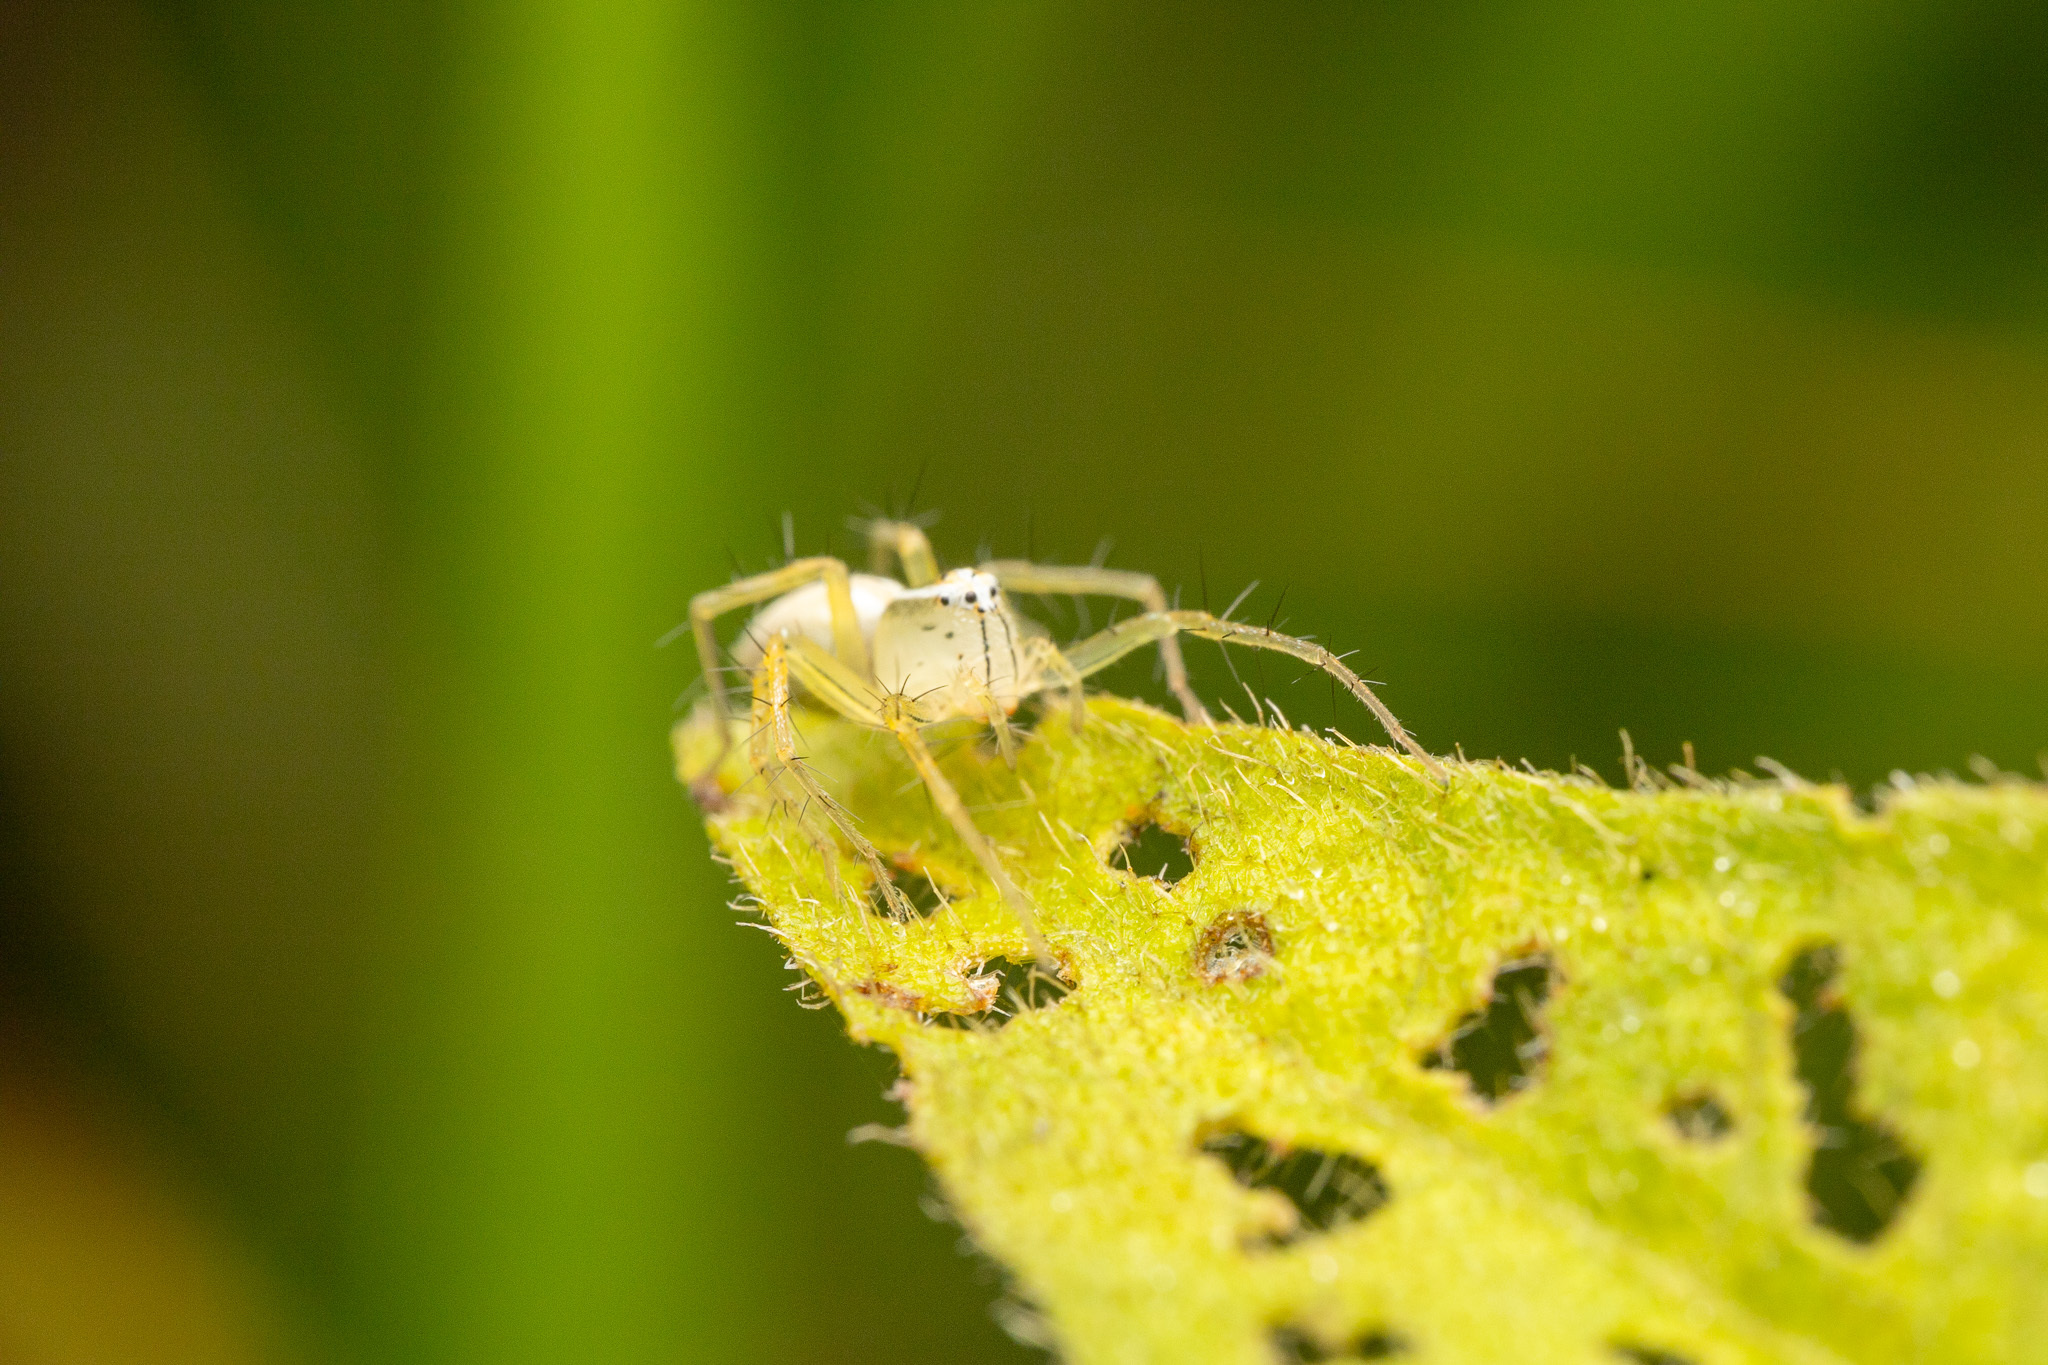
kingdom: Animalia
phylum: Arthropoda
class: Arachnida
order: Araneae
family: Oxyopidae
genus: Oxyopes
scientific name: Oxyopes salticus
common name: Lynx spiders
